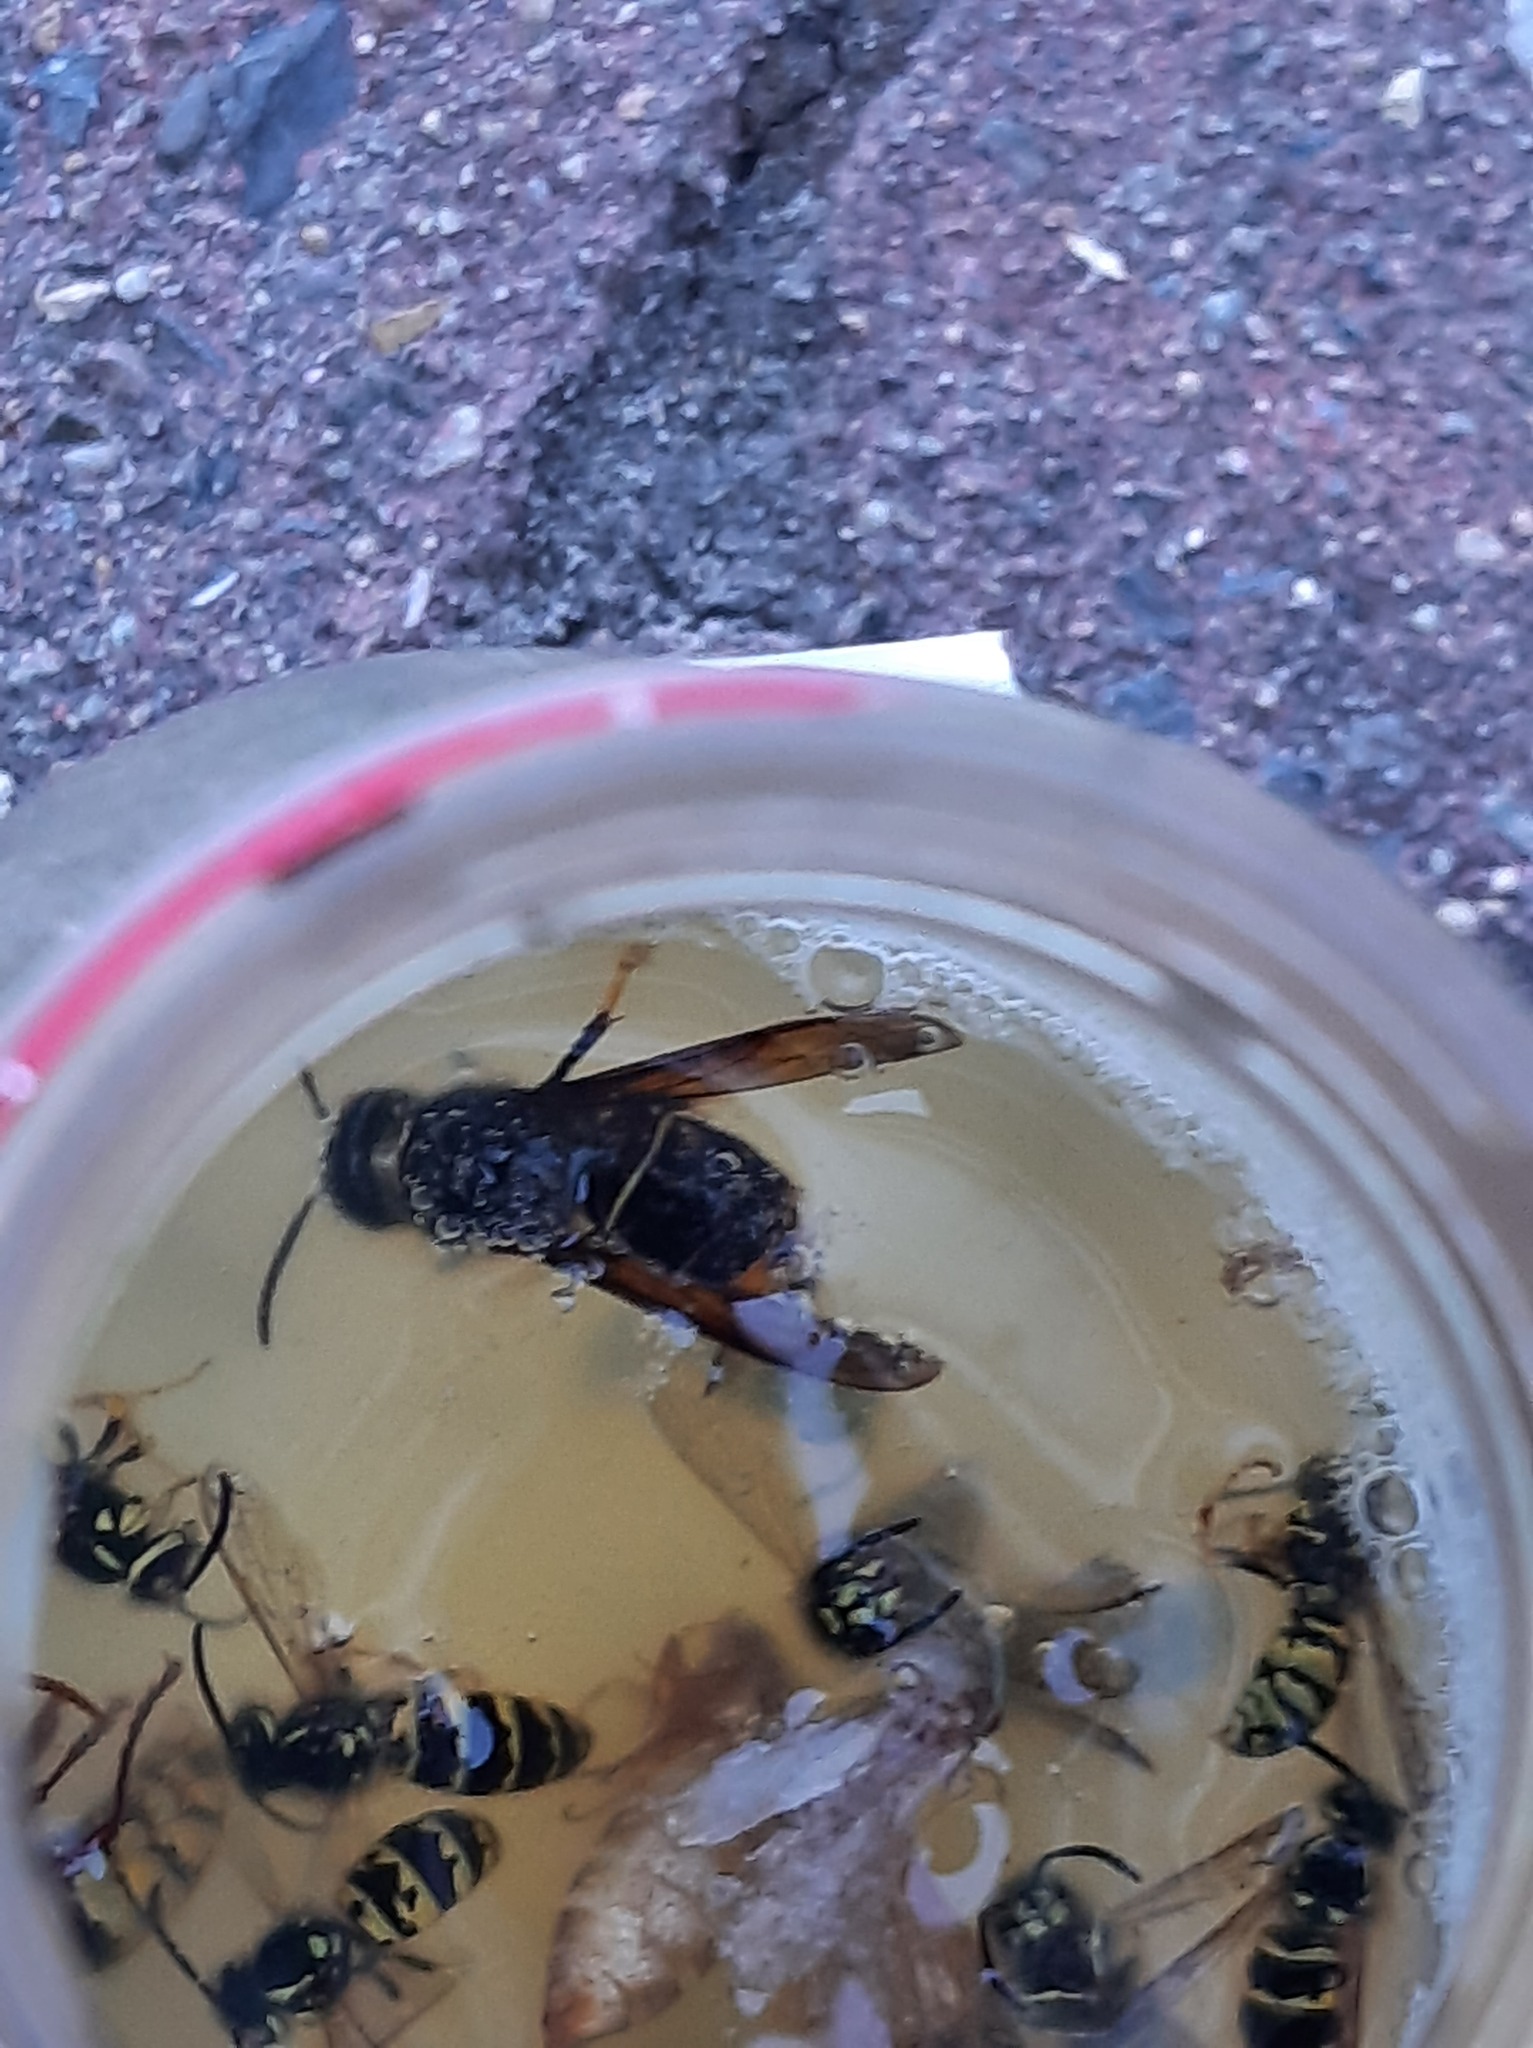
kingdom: Animalia
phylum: Arthropoda
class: Insecta
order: Hymenoptera
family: Vespidae
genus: Vespa
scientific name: Vespa velutina
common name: Asian hornet
